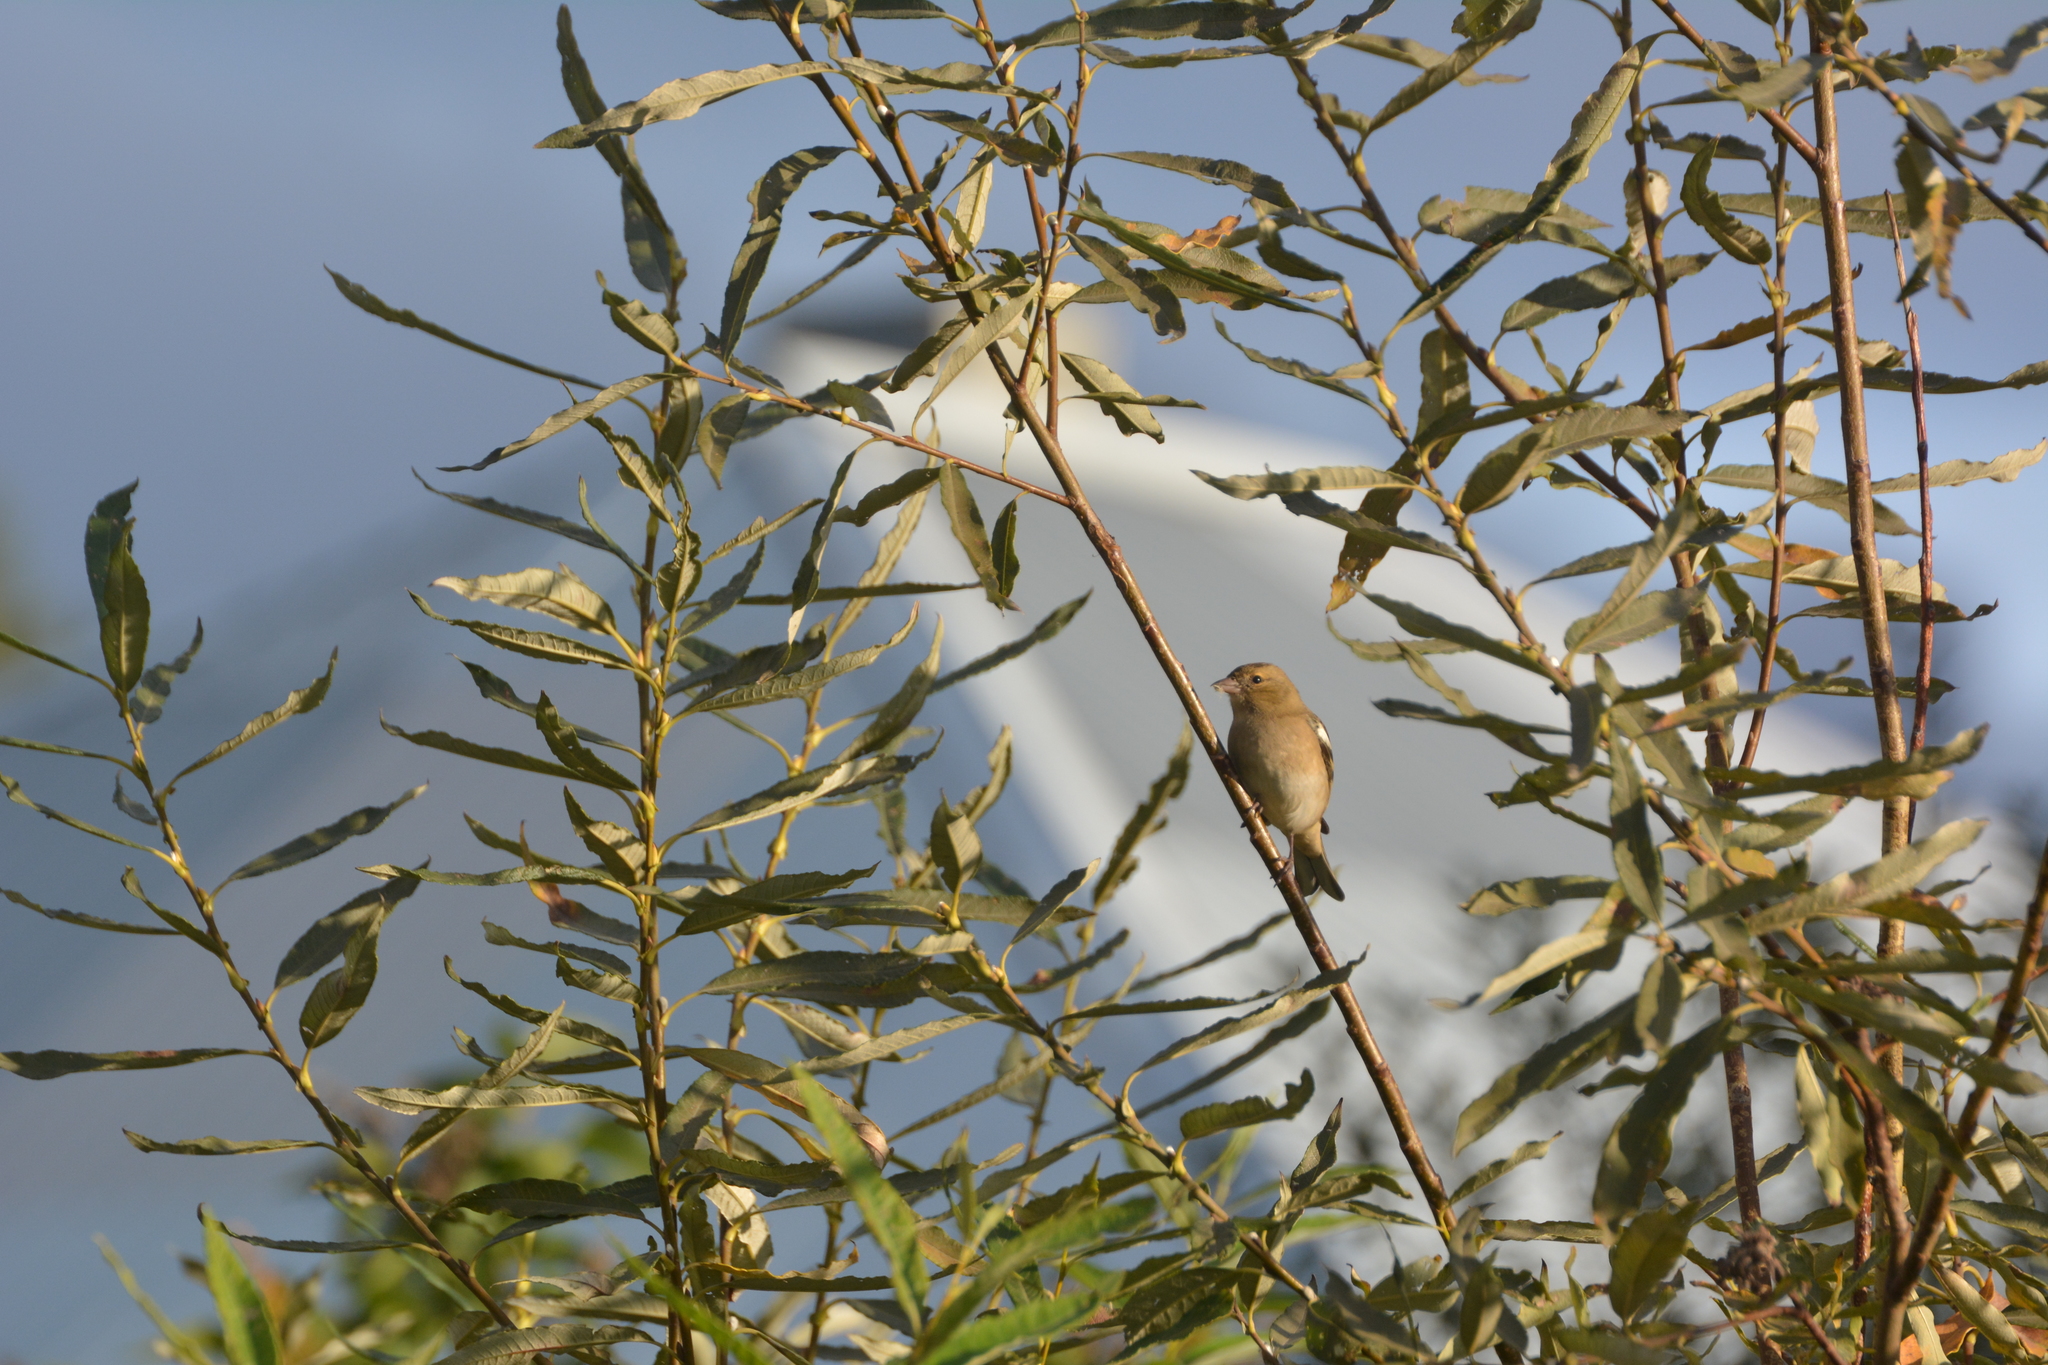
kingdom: Animalia
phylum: Chordata
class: Aves
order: Passeriformes
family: Fringillidae
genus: Fringilla
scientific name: Fringilla coelebs
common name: Common chaffinch
